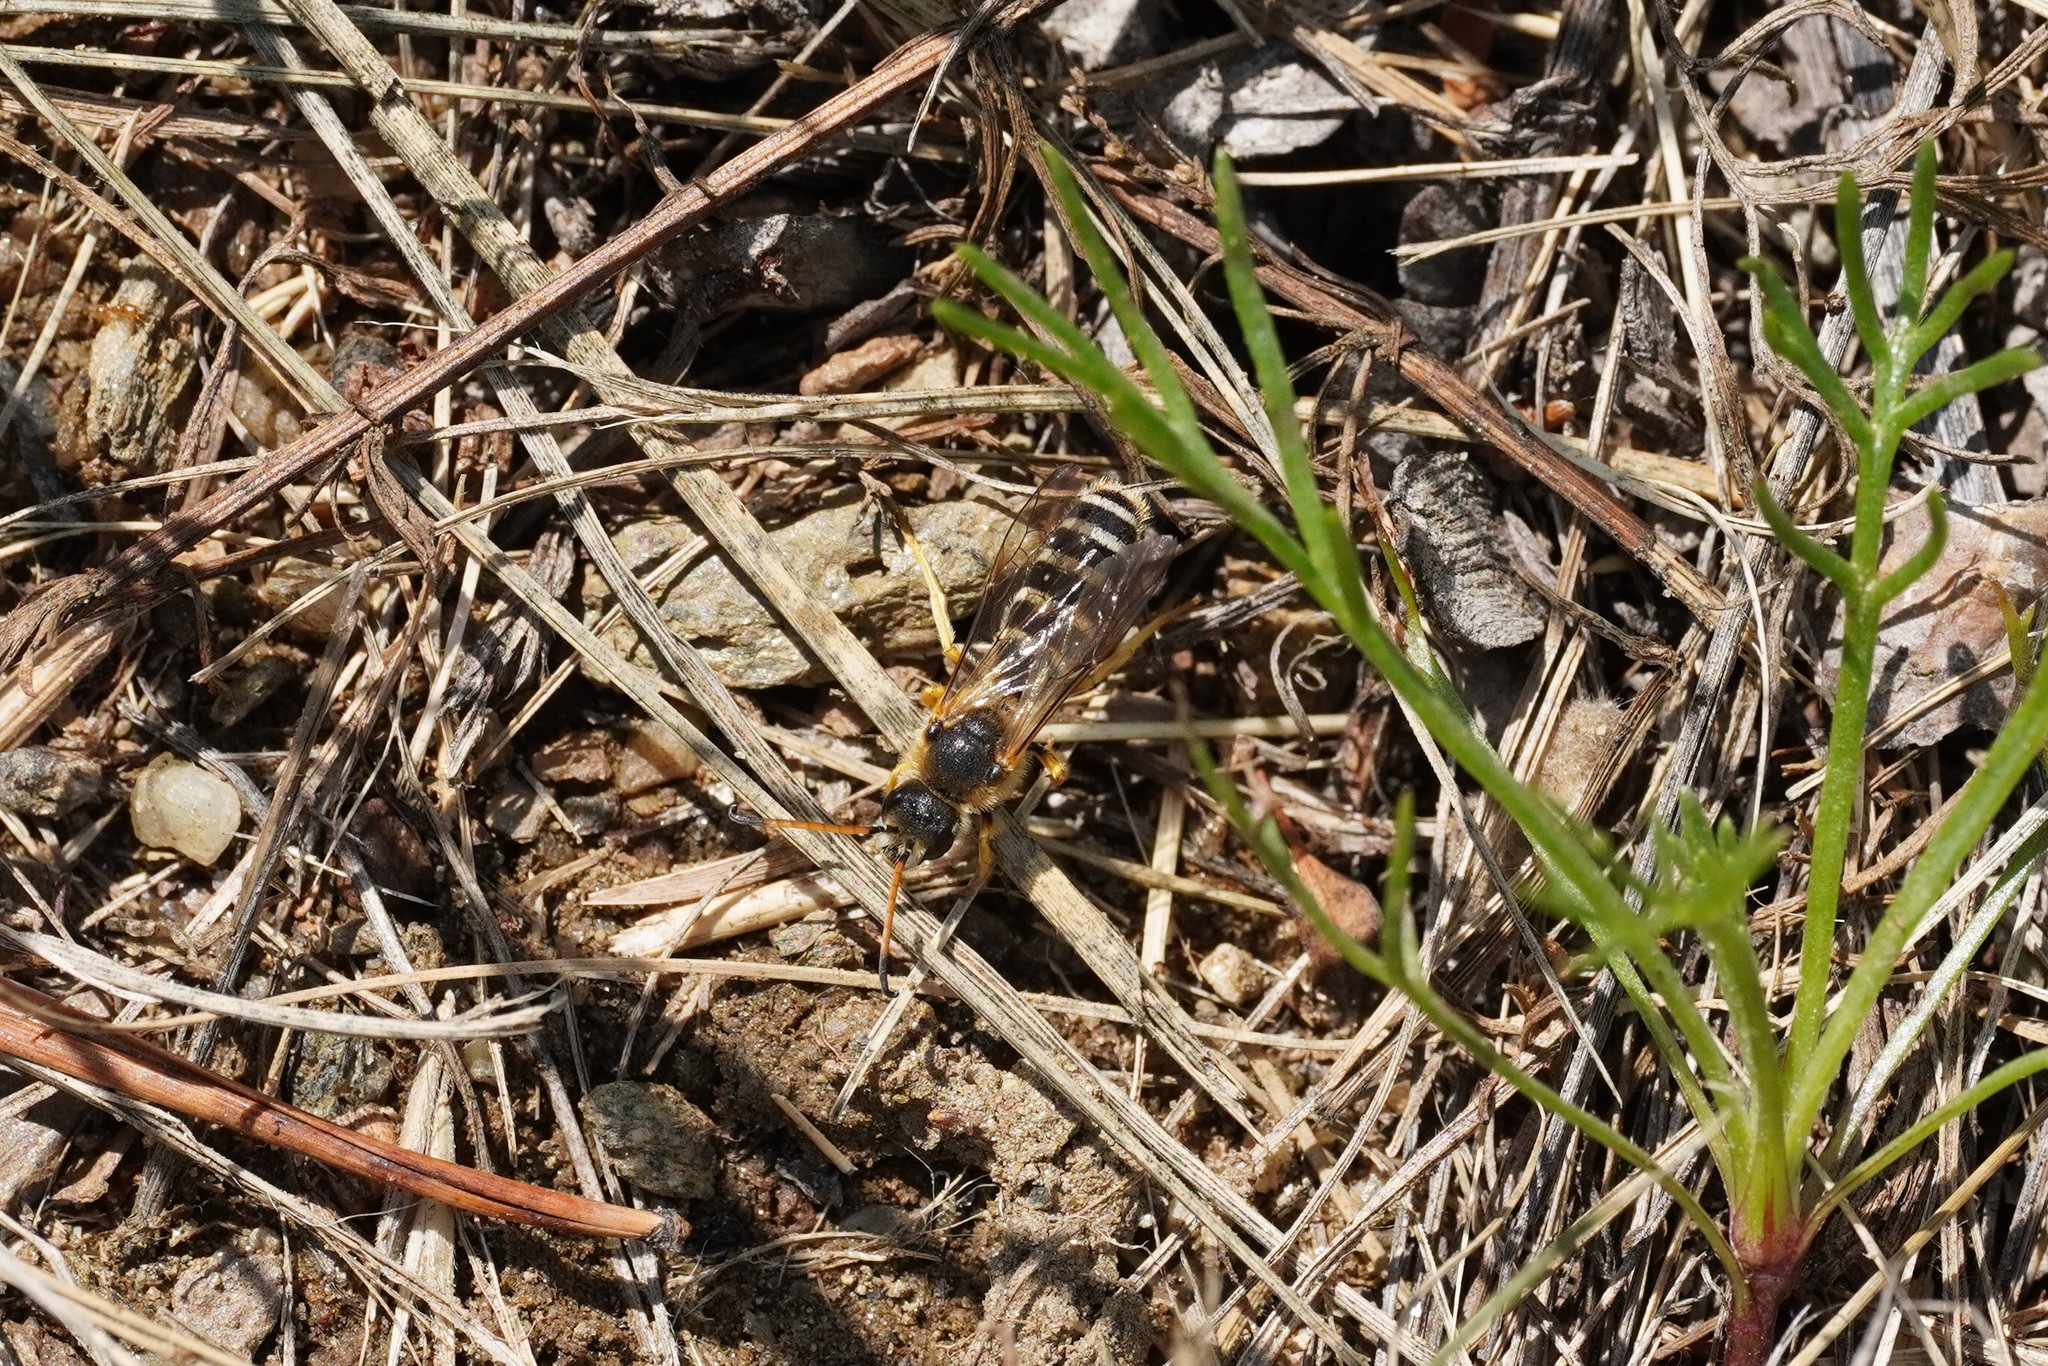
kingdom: Animalia
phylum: Arthropoda
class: Insecta
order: Hymenoptera
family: Halictidae
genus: Halictus
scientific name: Halictus sexcinctus
